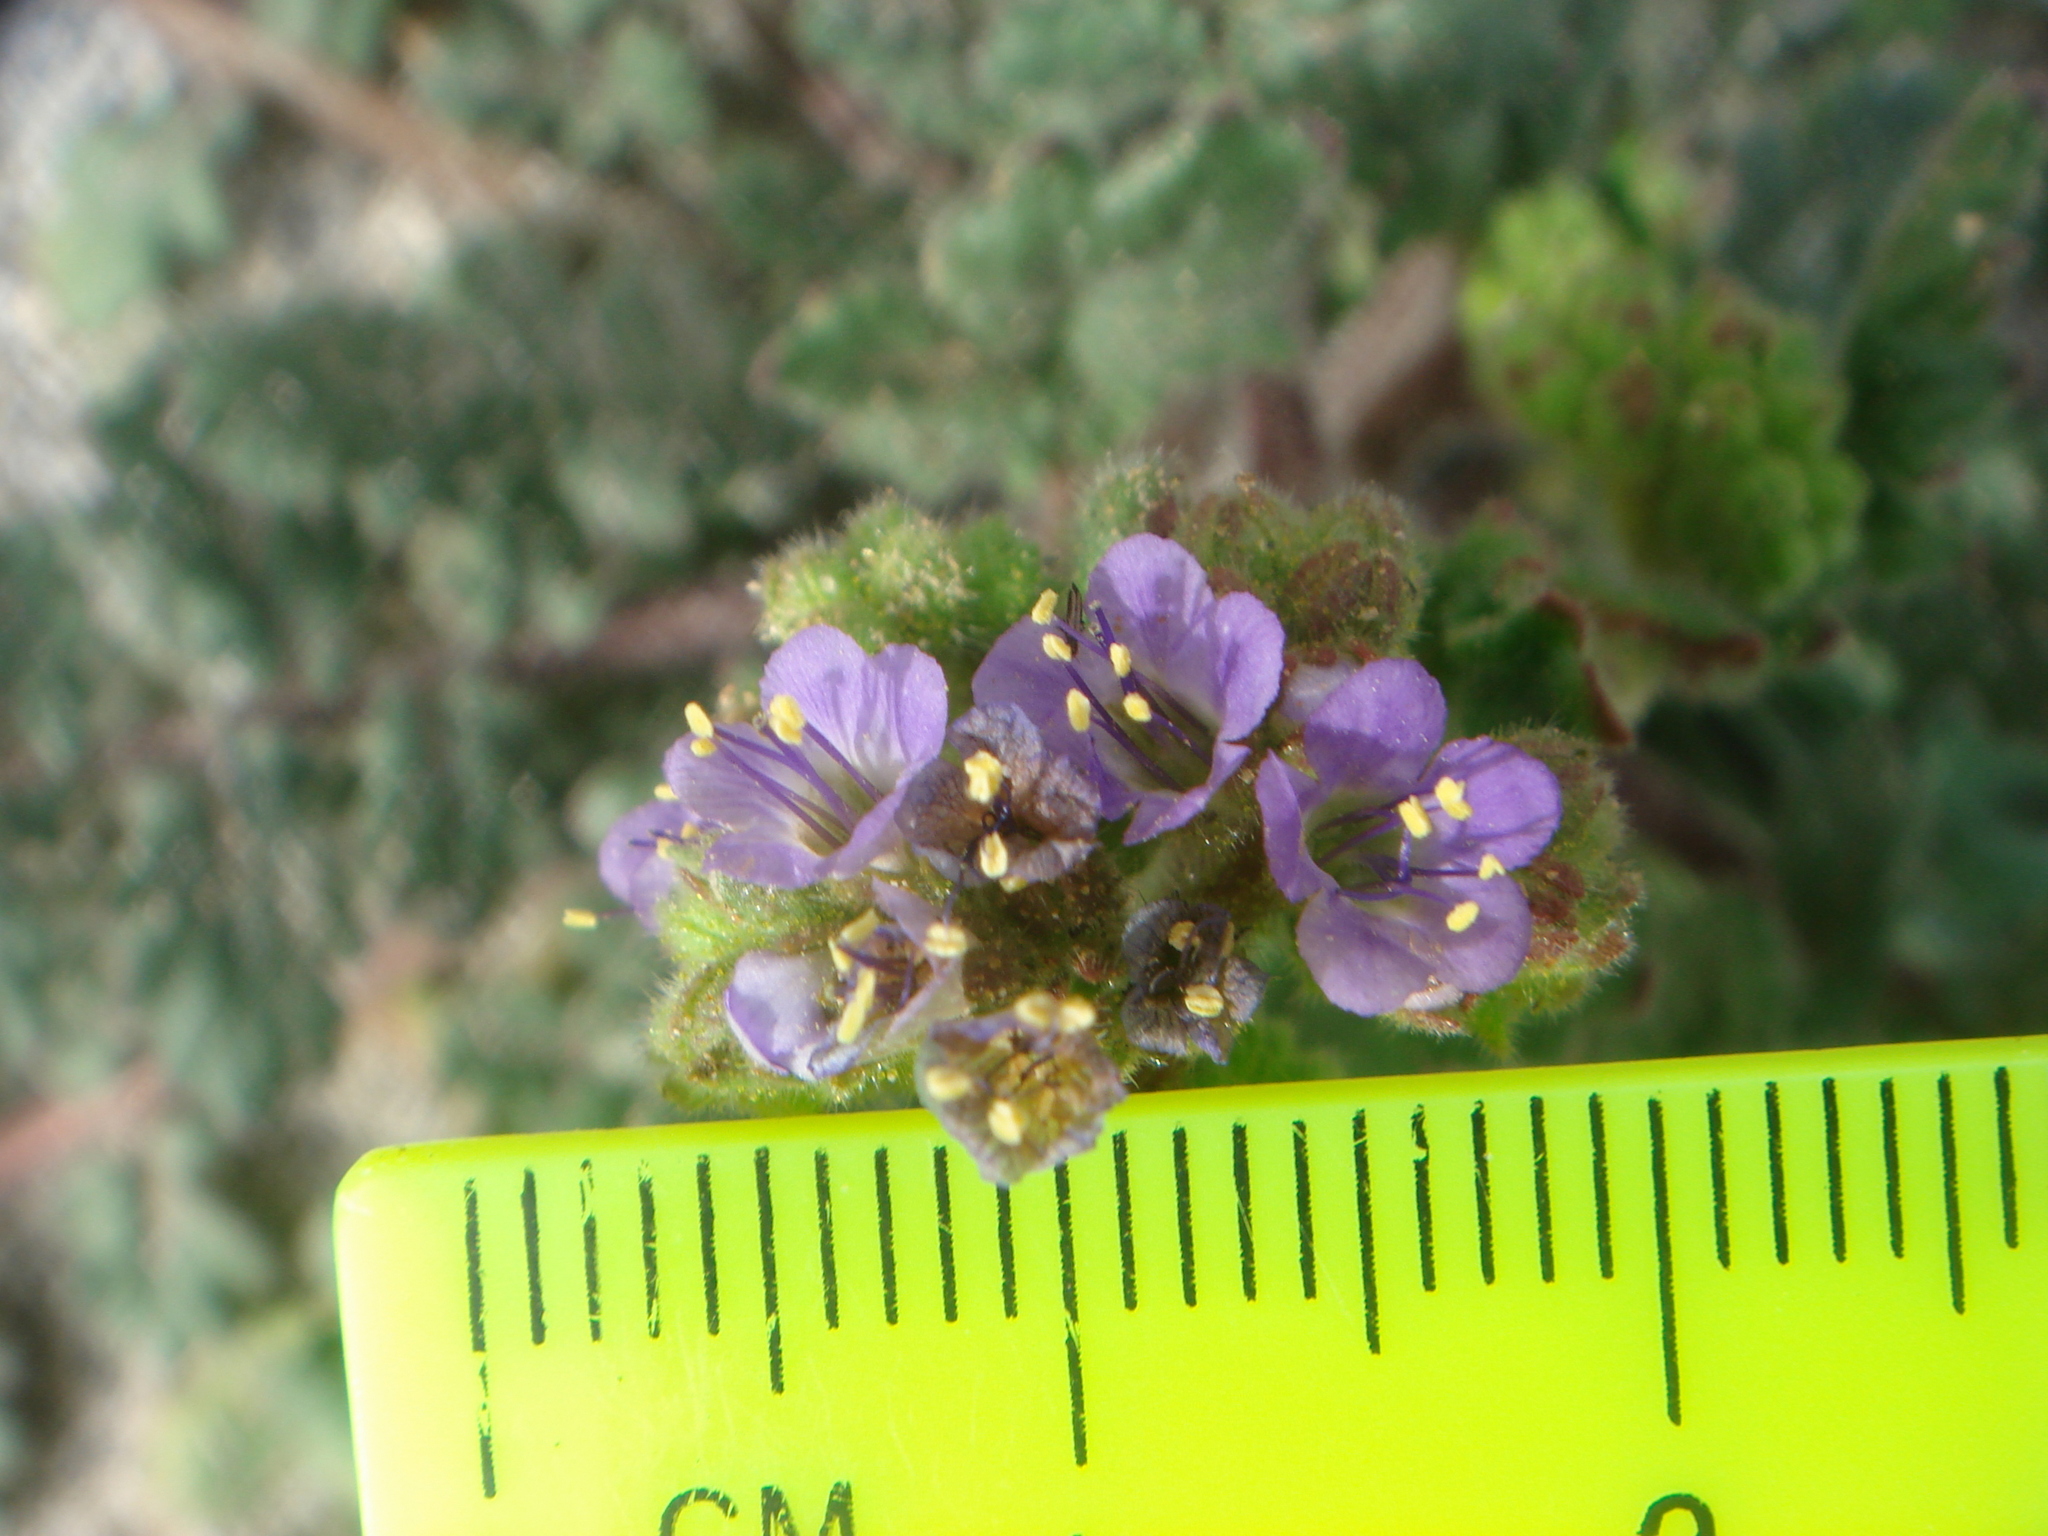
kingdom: Plantae
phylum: Tracheophyta
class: Magnoliopsida
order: Boraginales
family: Hydrophyllaceae
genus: Phacelia
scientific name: Phacelia minutiflora
